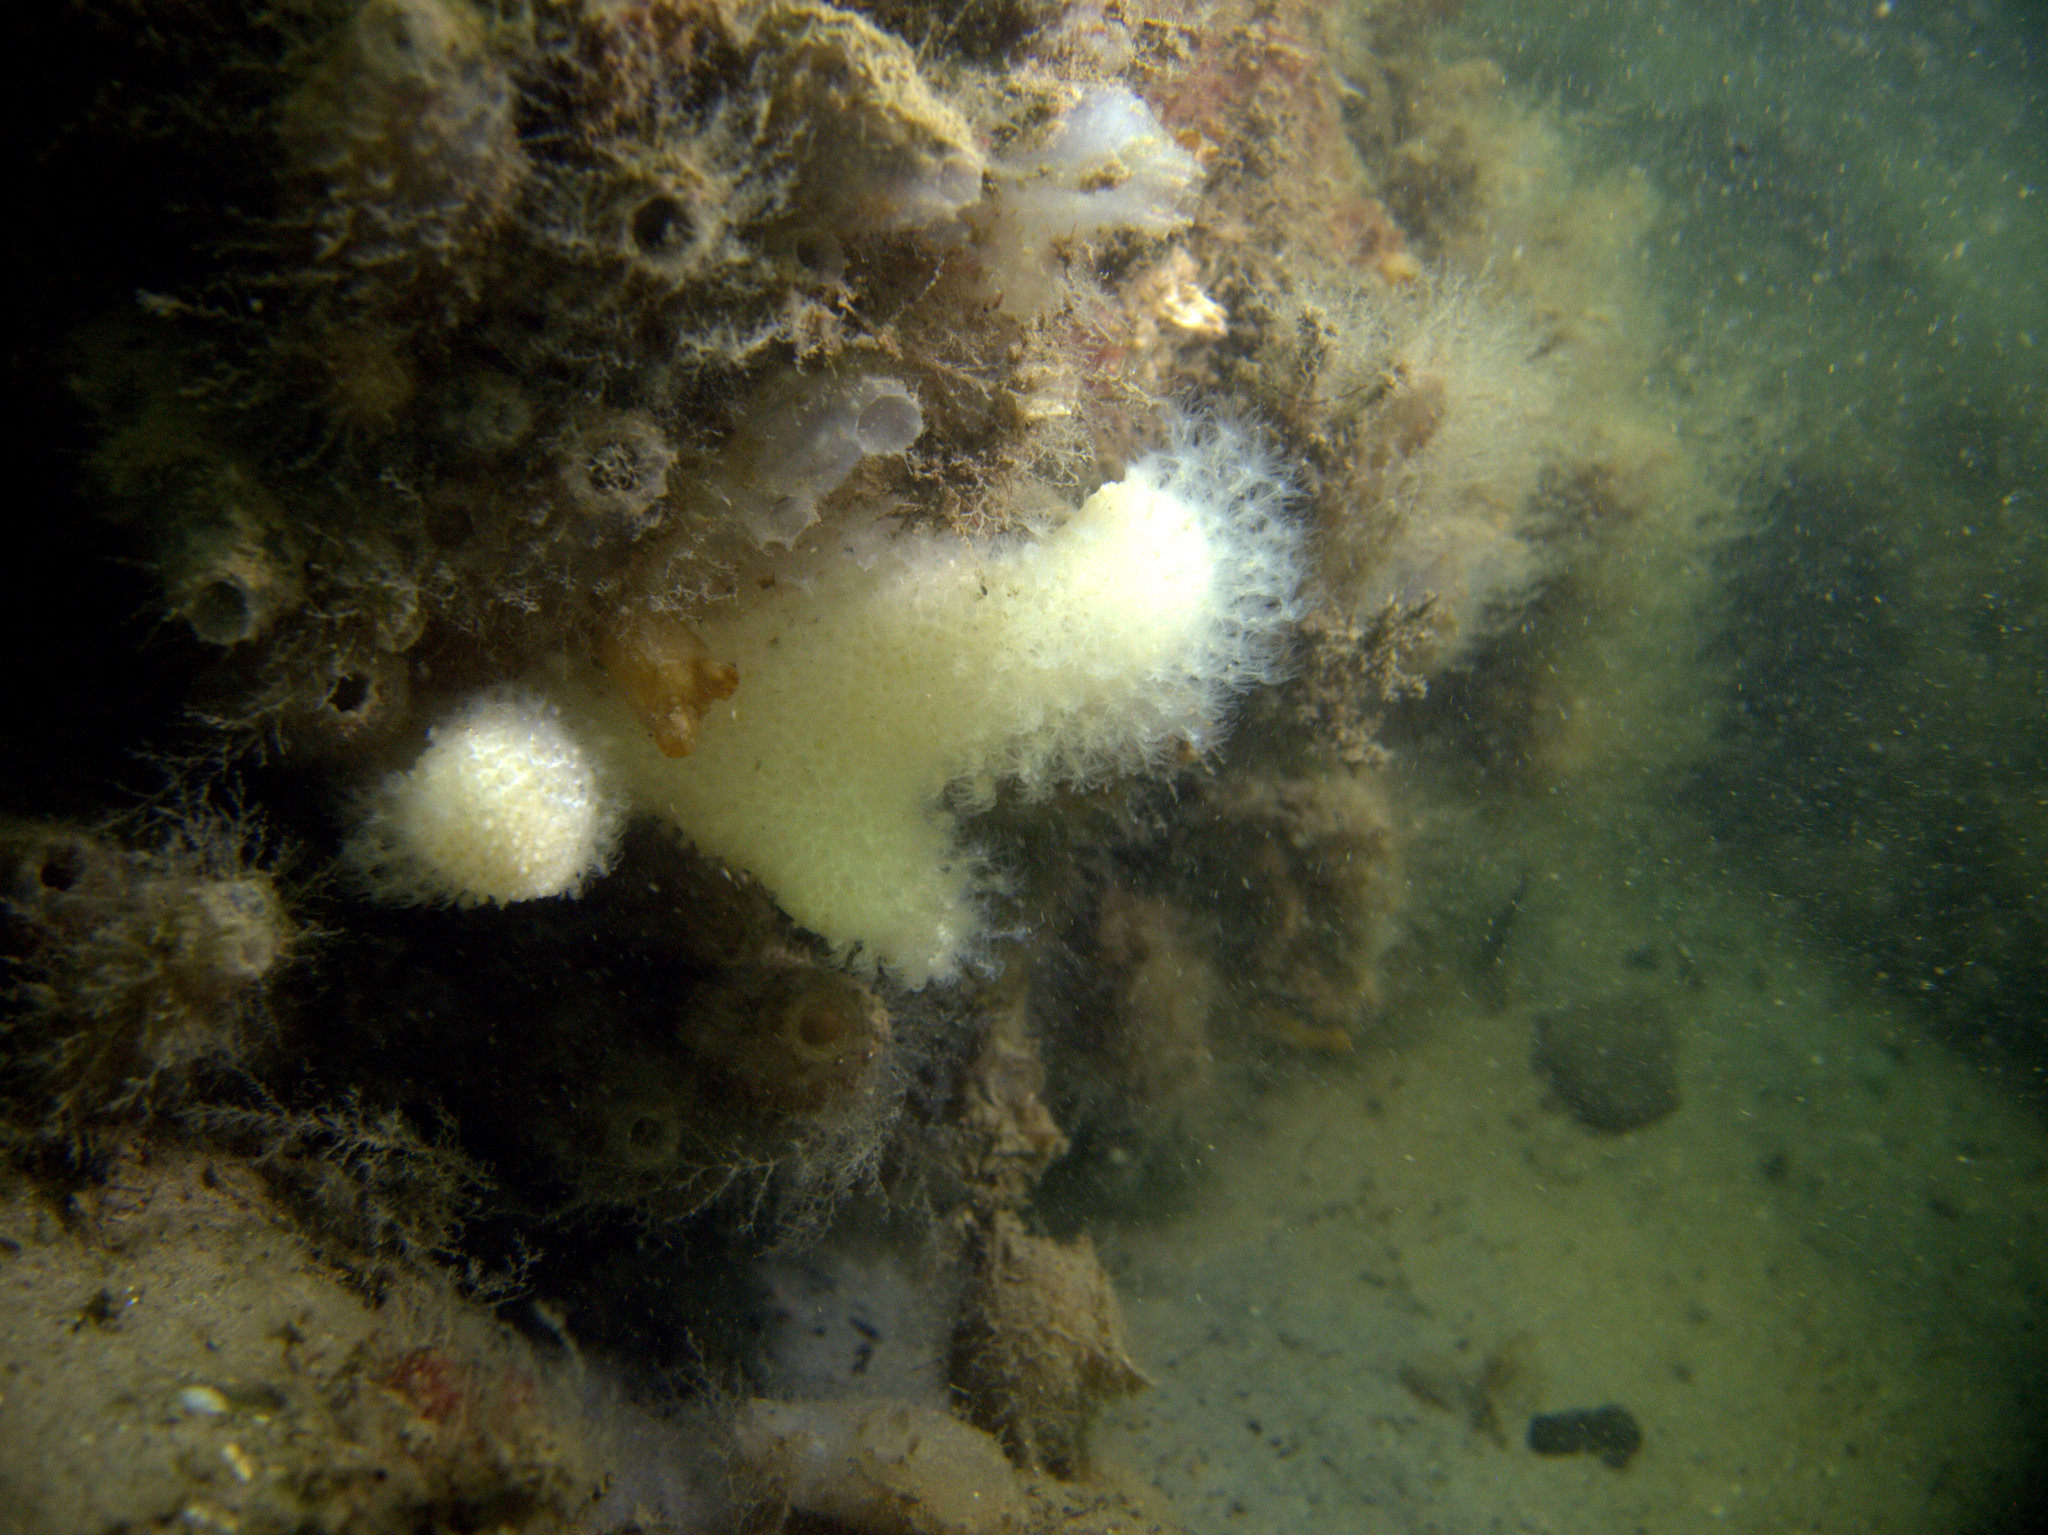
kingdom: Animalia
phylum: Cnidaria
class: Anthozoa
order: Malacalcyonacea
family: Alcyoniidae
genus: Alcyonium
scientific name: Alcyonium digitatum
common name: Dead man's fingers
